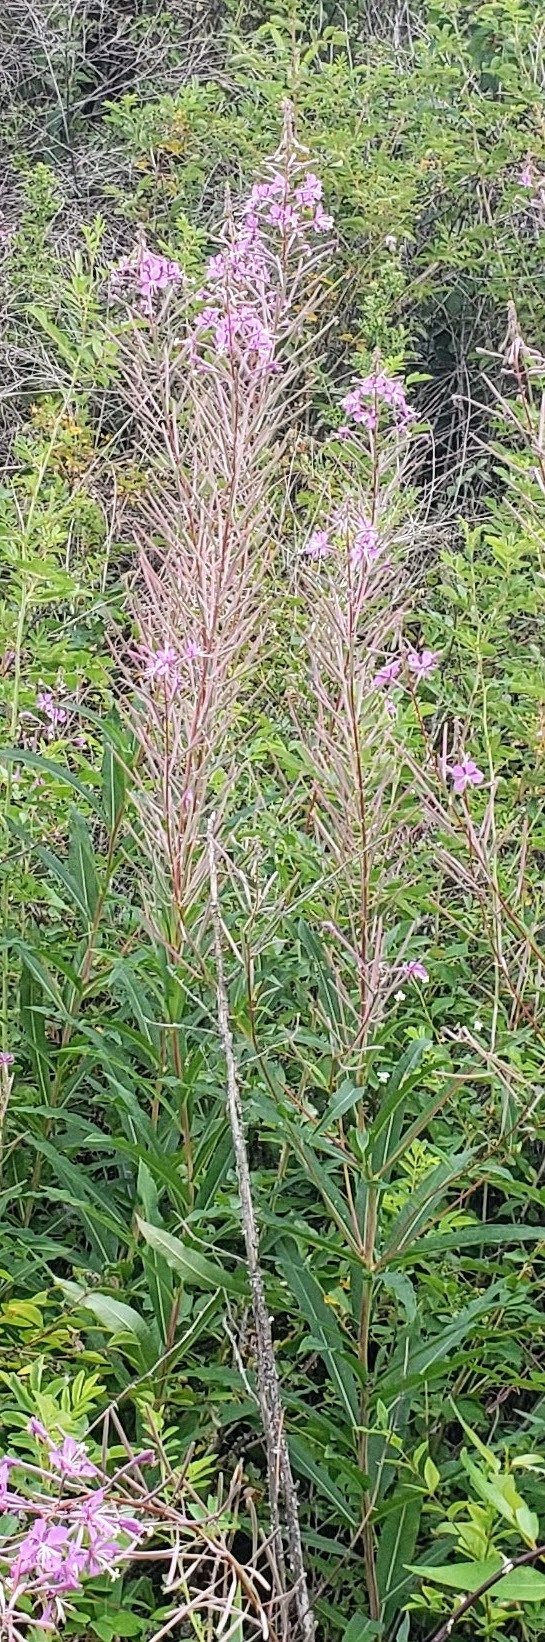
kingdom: Plantae
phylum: Tracheophyta
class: Magnoliopsida
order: Myrtales
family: Onagraceae
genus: Chamaenerion
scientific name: Chamaenerion angustifolium
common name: Fireweed
